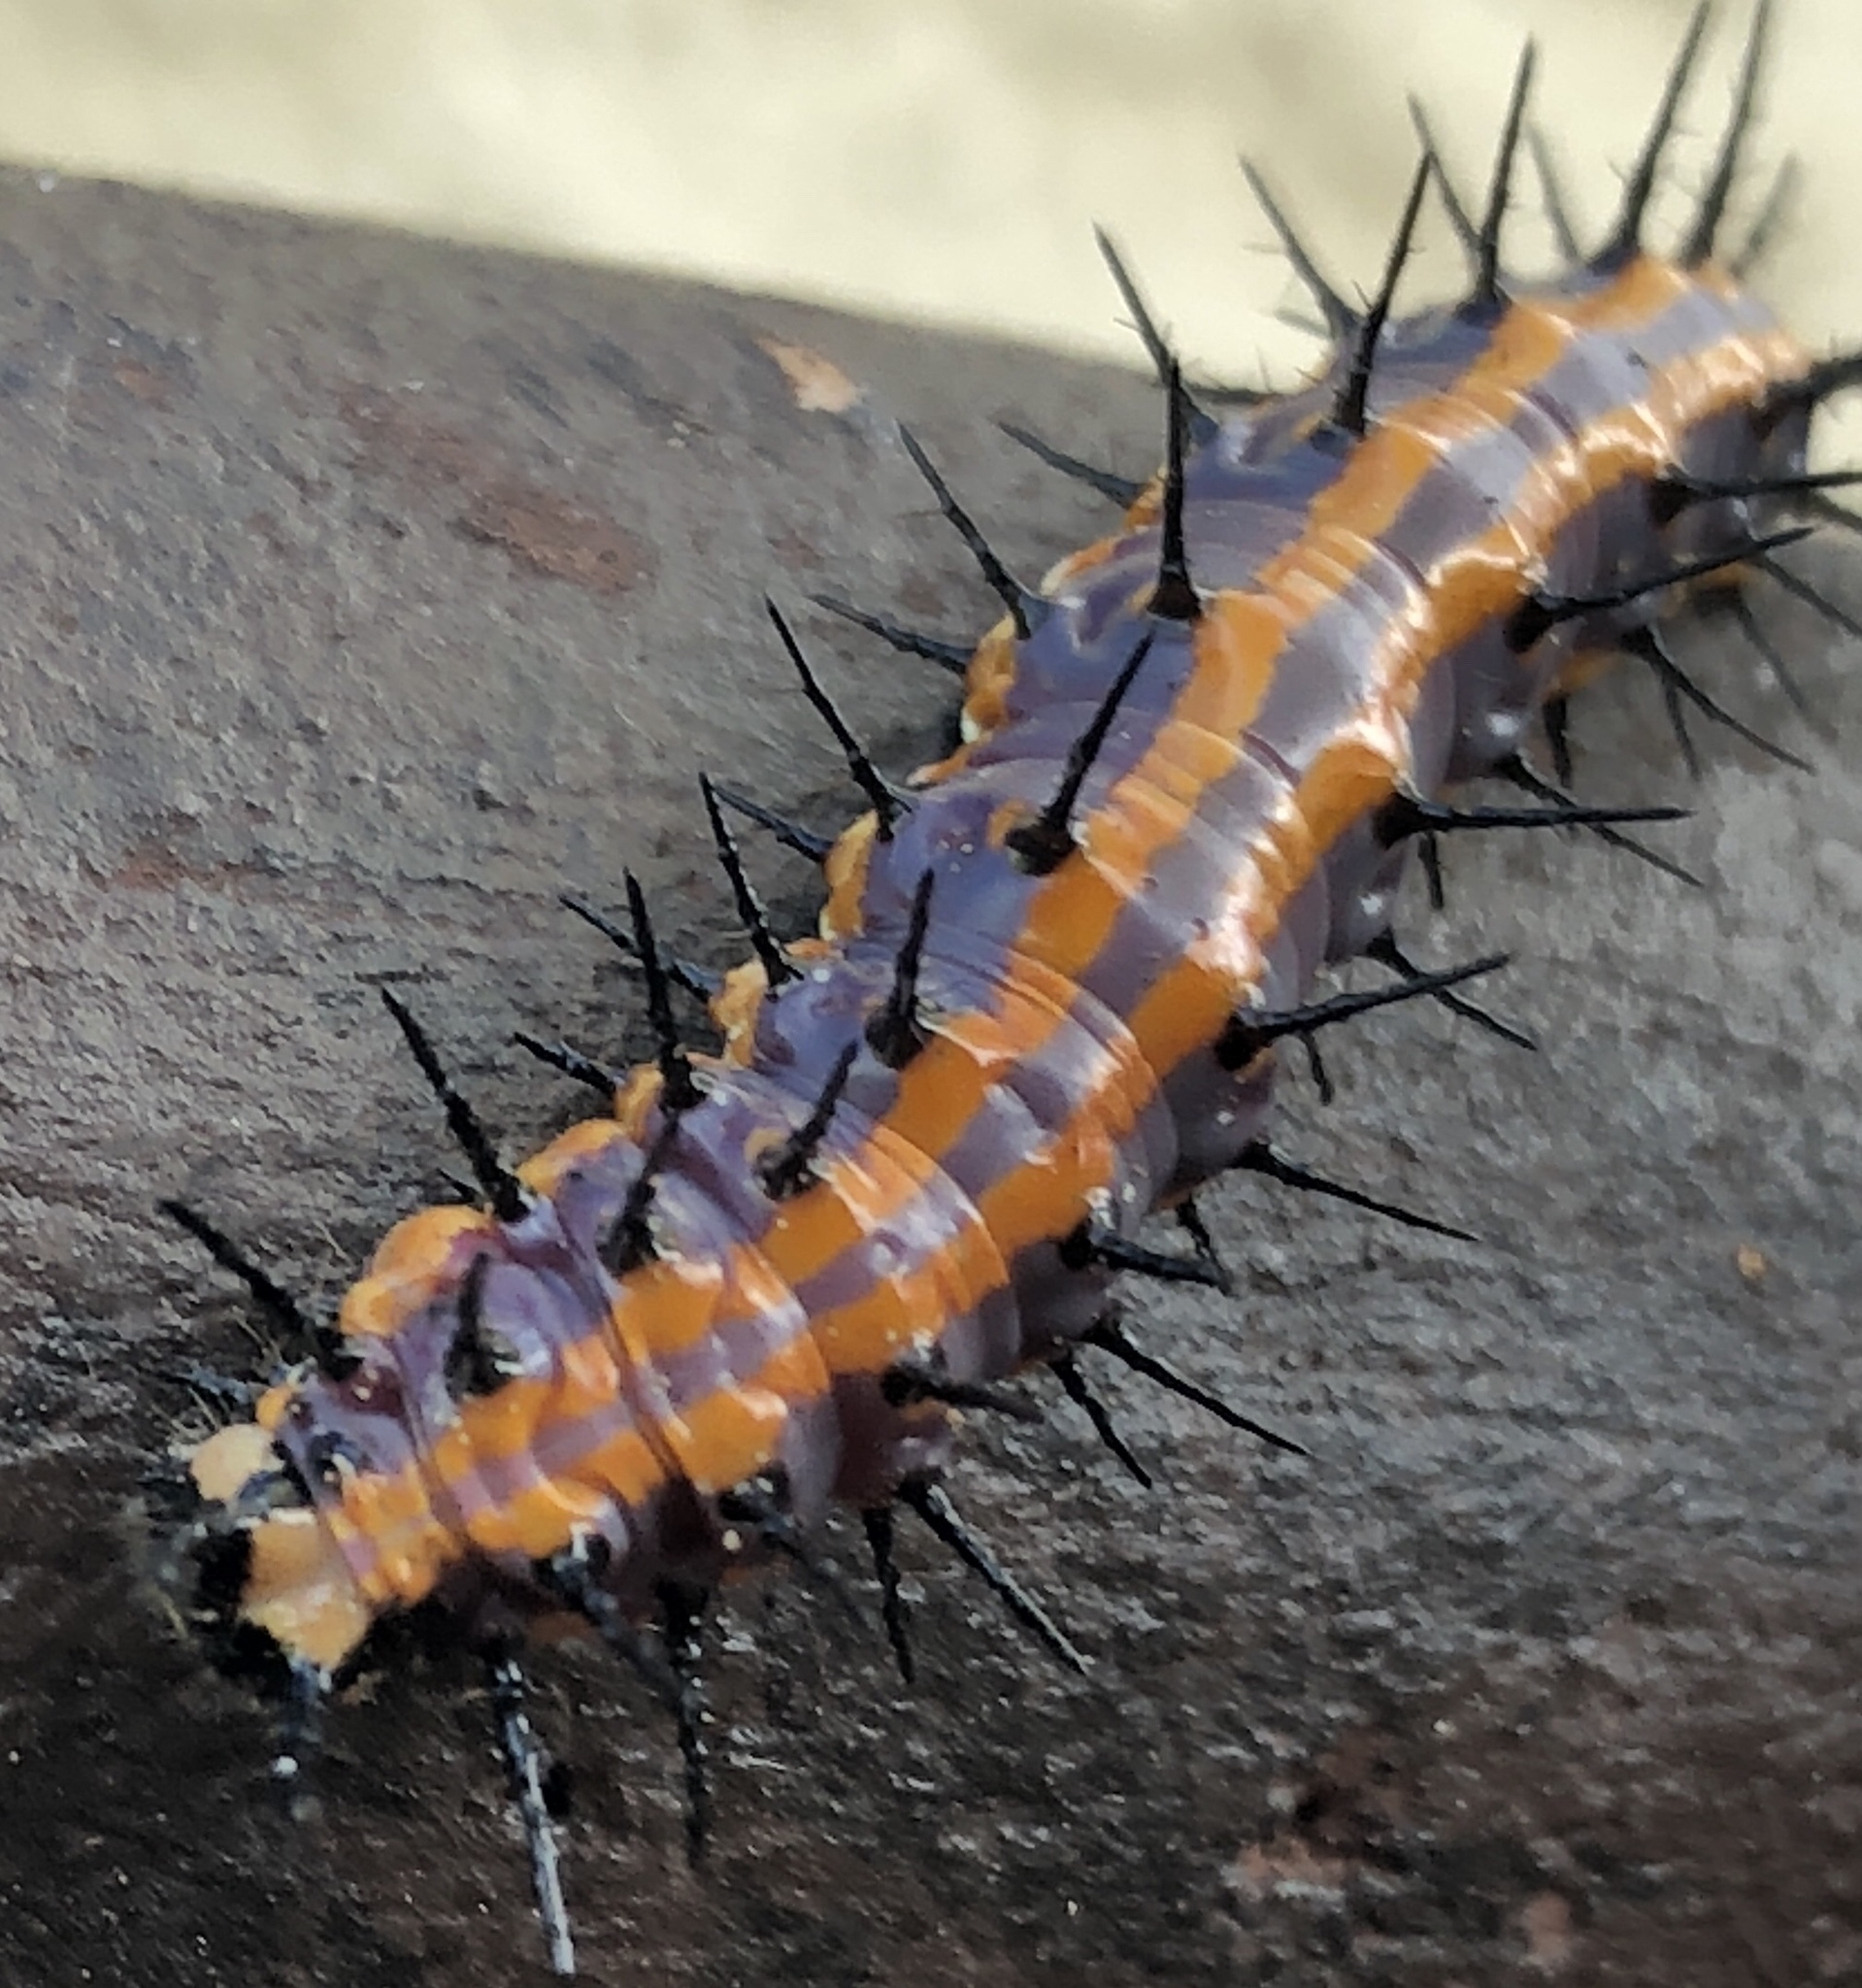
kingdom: Animalia
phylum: Arthropoda
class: Insecta
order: Lepidoptera
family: Nymphalidae
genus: Dione
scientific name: Dione vanillae
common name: Gulf fritillary
